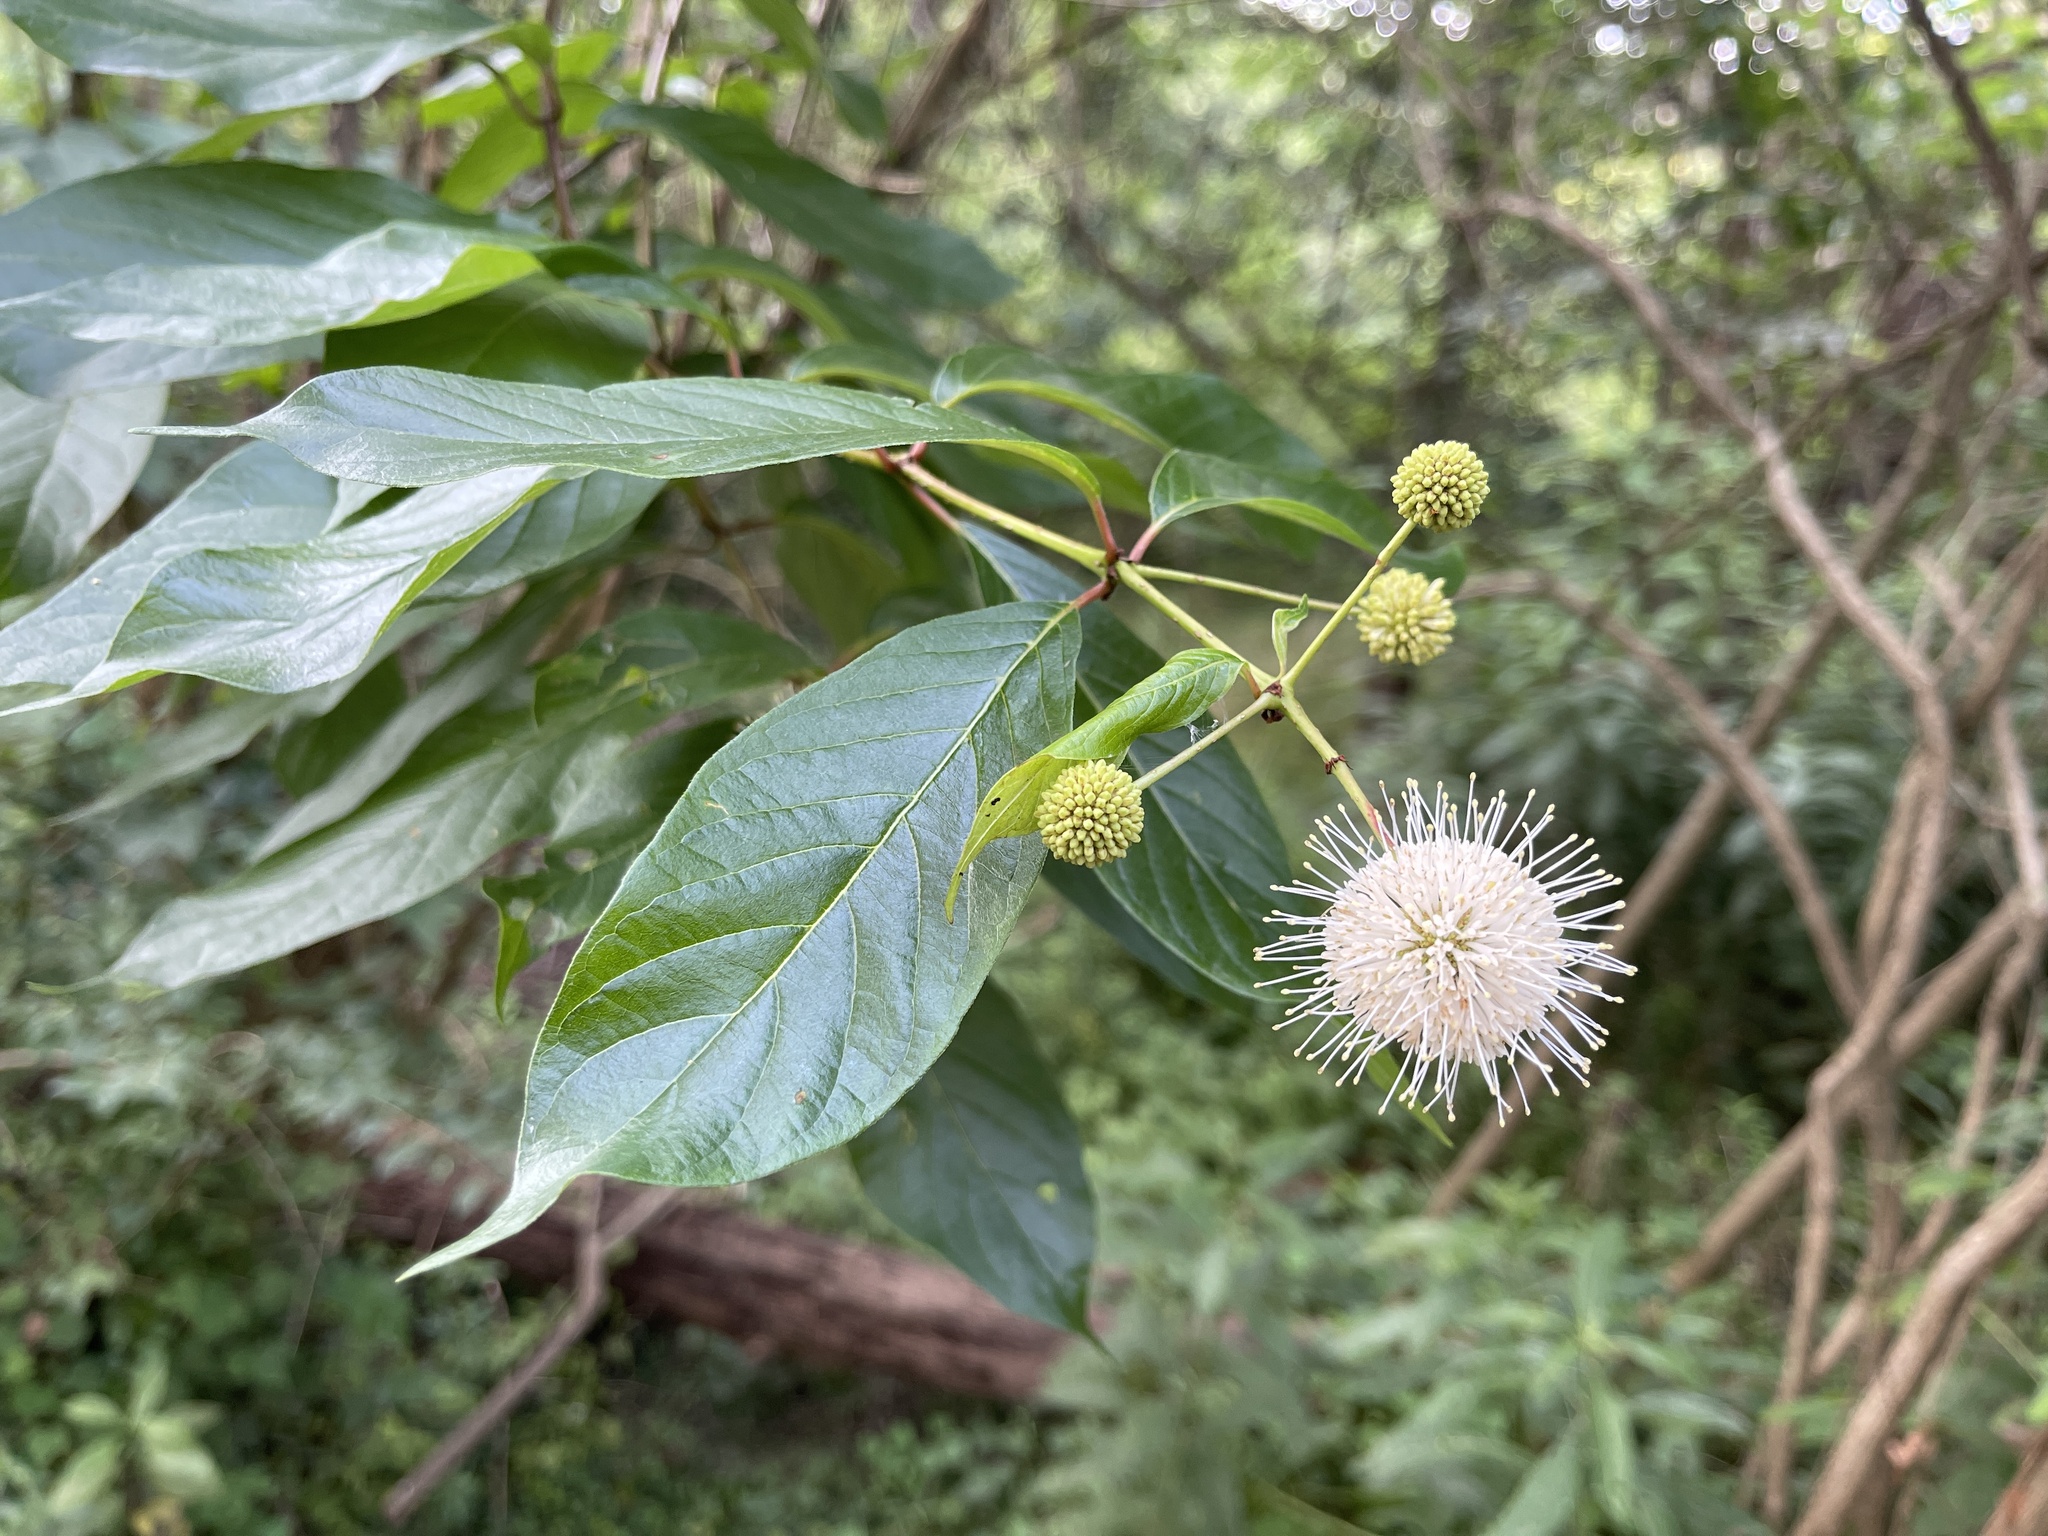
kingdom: Plantae
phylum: Tracheophyta
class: Magnoliopsida
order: Gentianales
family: Rubiaceae
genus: Cephalanthus
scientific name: Cephalanthus occidentalis
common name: Button-willow
